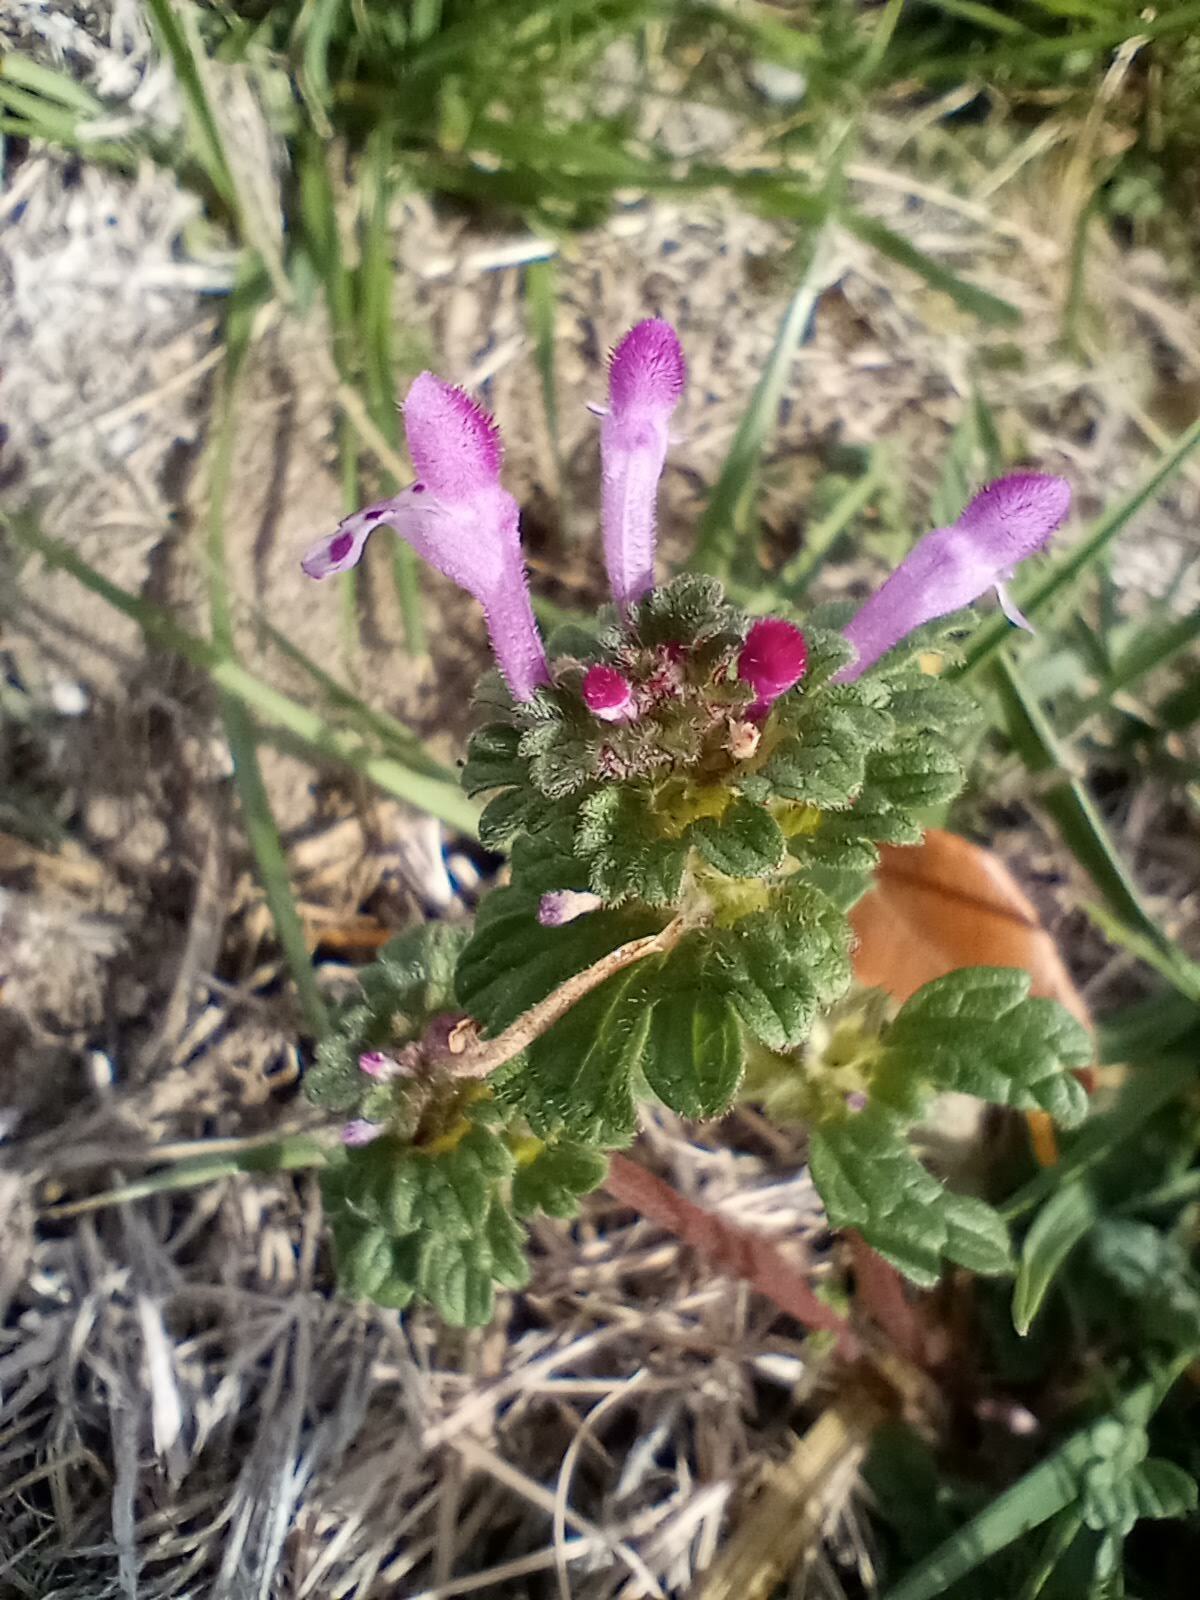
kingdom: Plantae
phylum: Tracheophyta
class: Magnoliopsida
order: Lamiales
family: Lamiaceae
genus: Lamium
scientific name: Lamium amplexicaule
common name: Henbit dead-nettle
